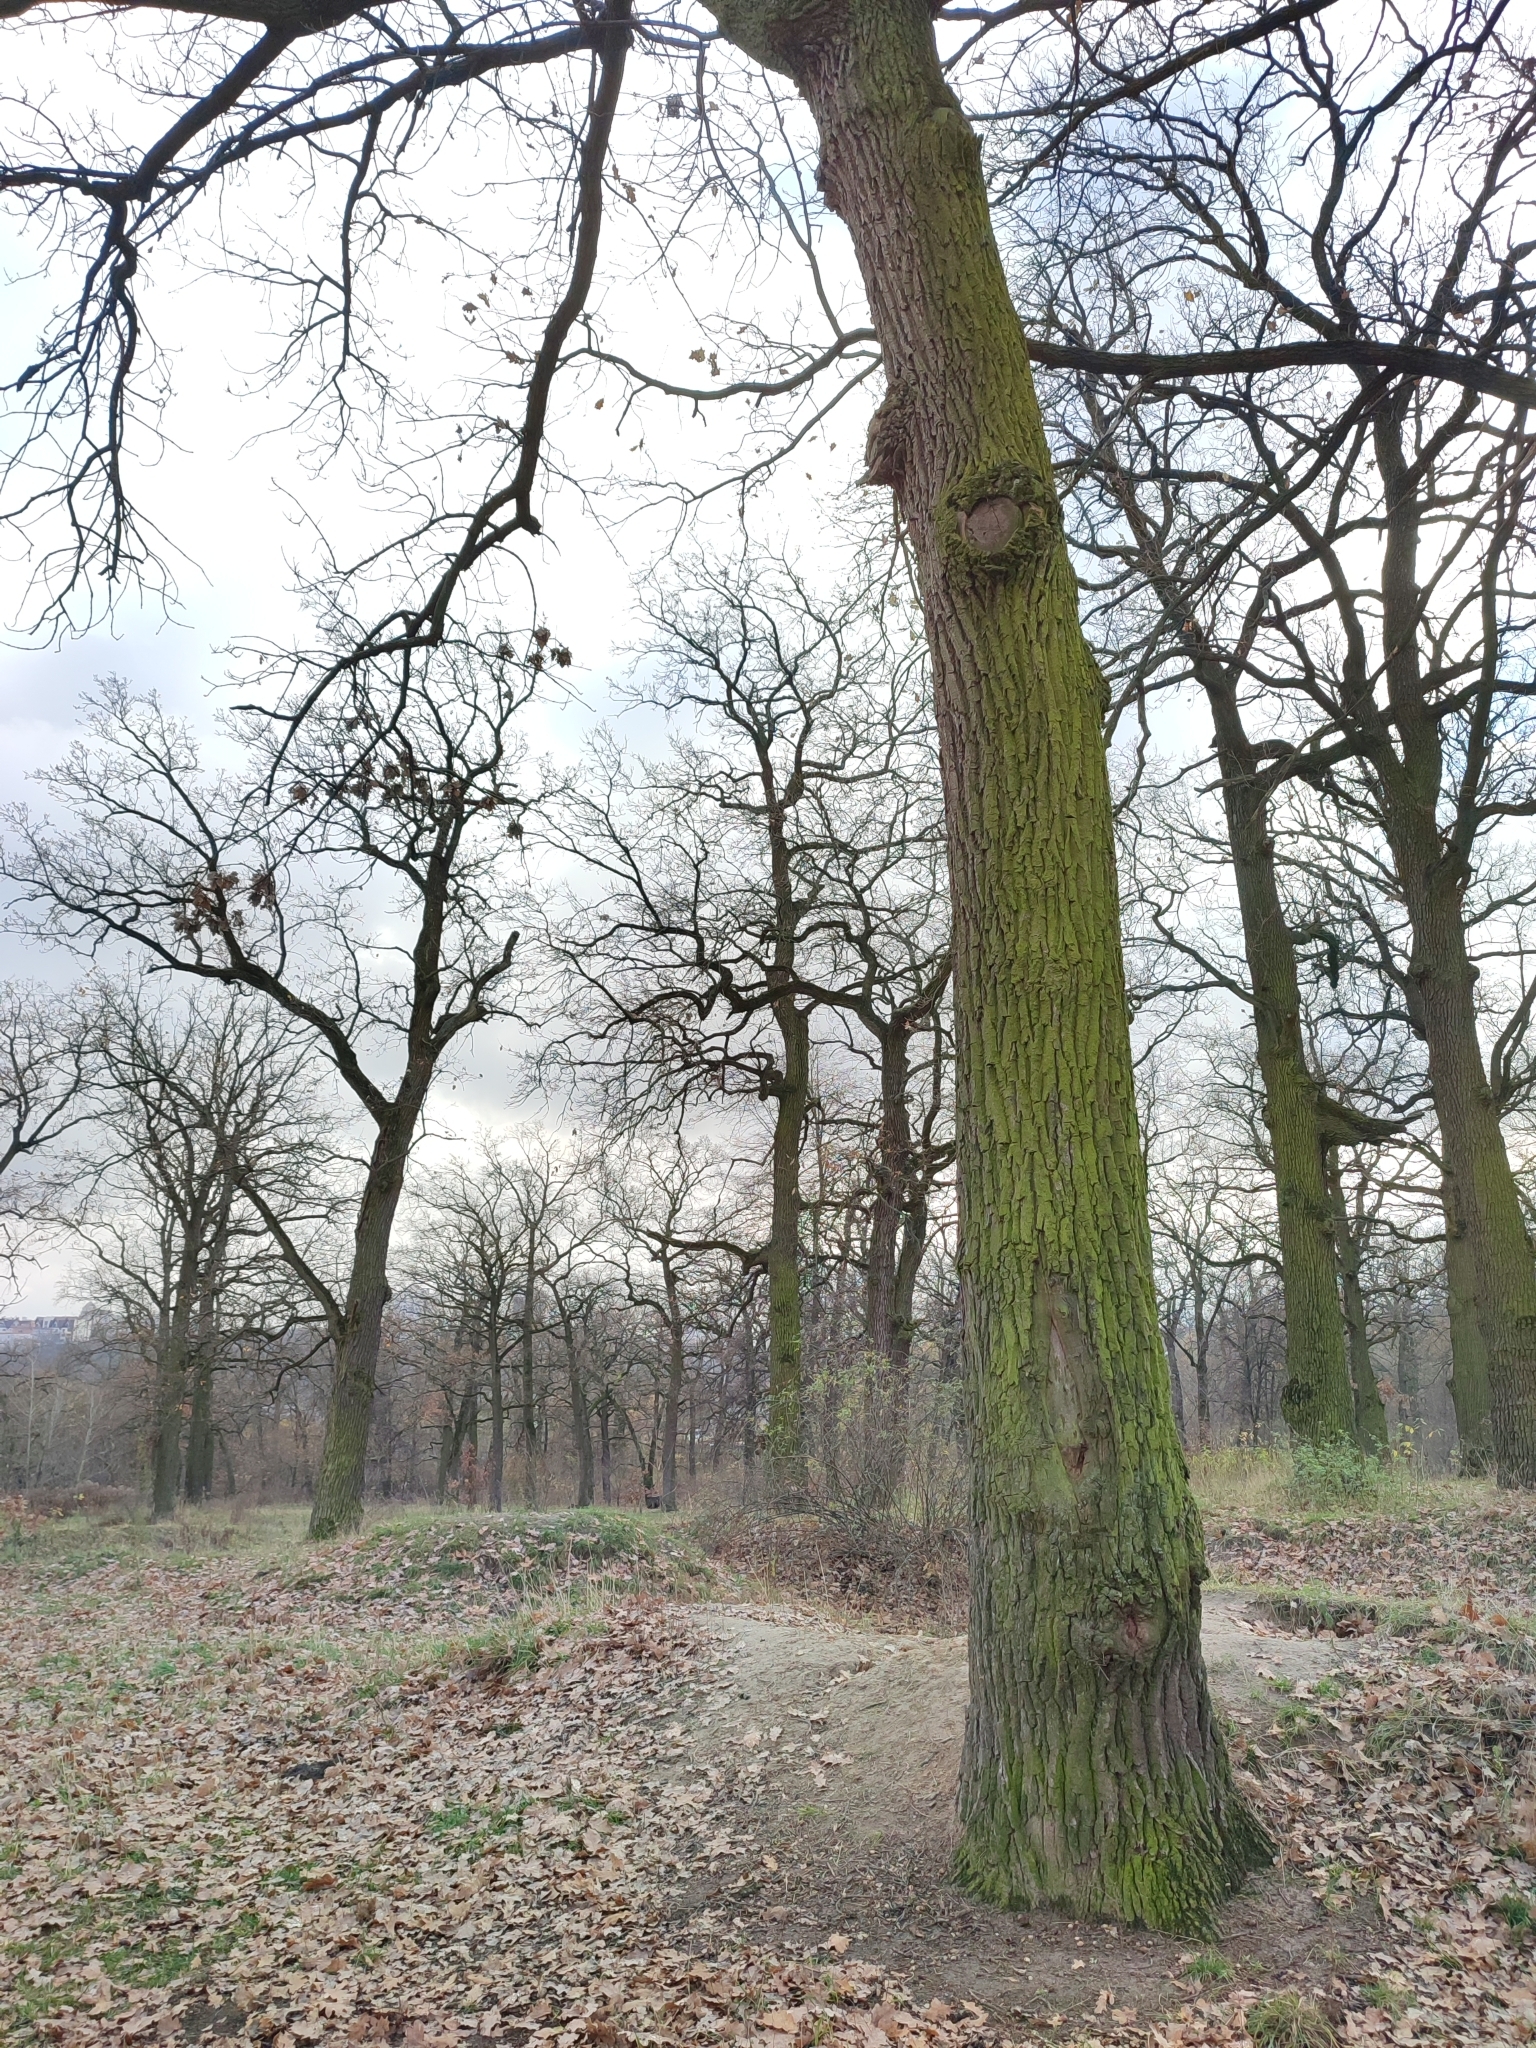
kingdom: Plantae
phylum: Tracheophyta
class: Magnoliopsida
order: Fagales
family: Fagaceae
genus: Quercus
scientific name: Quercus robur
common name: Pedunculate oak
